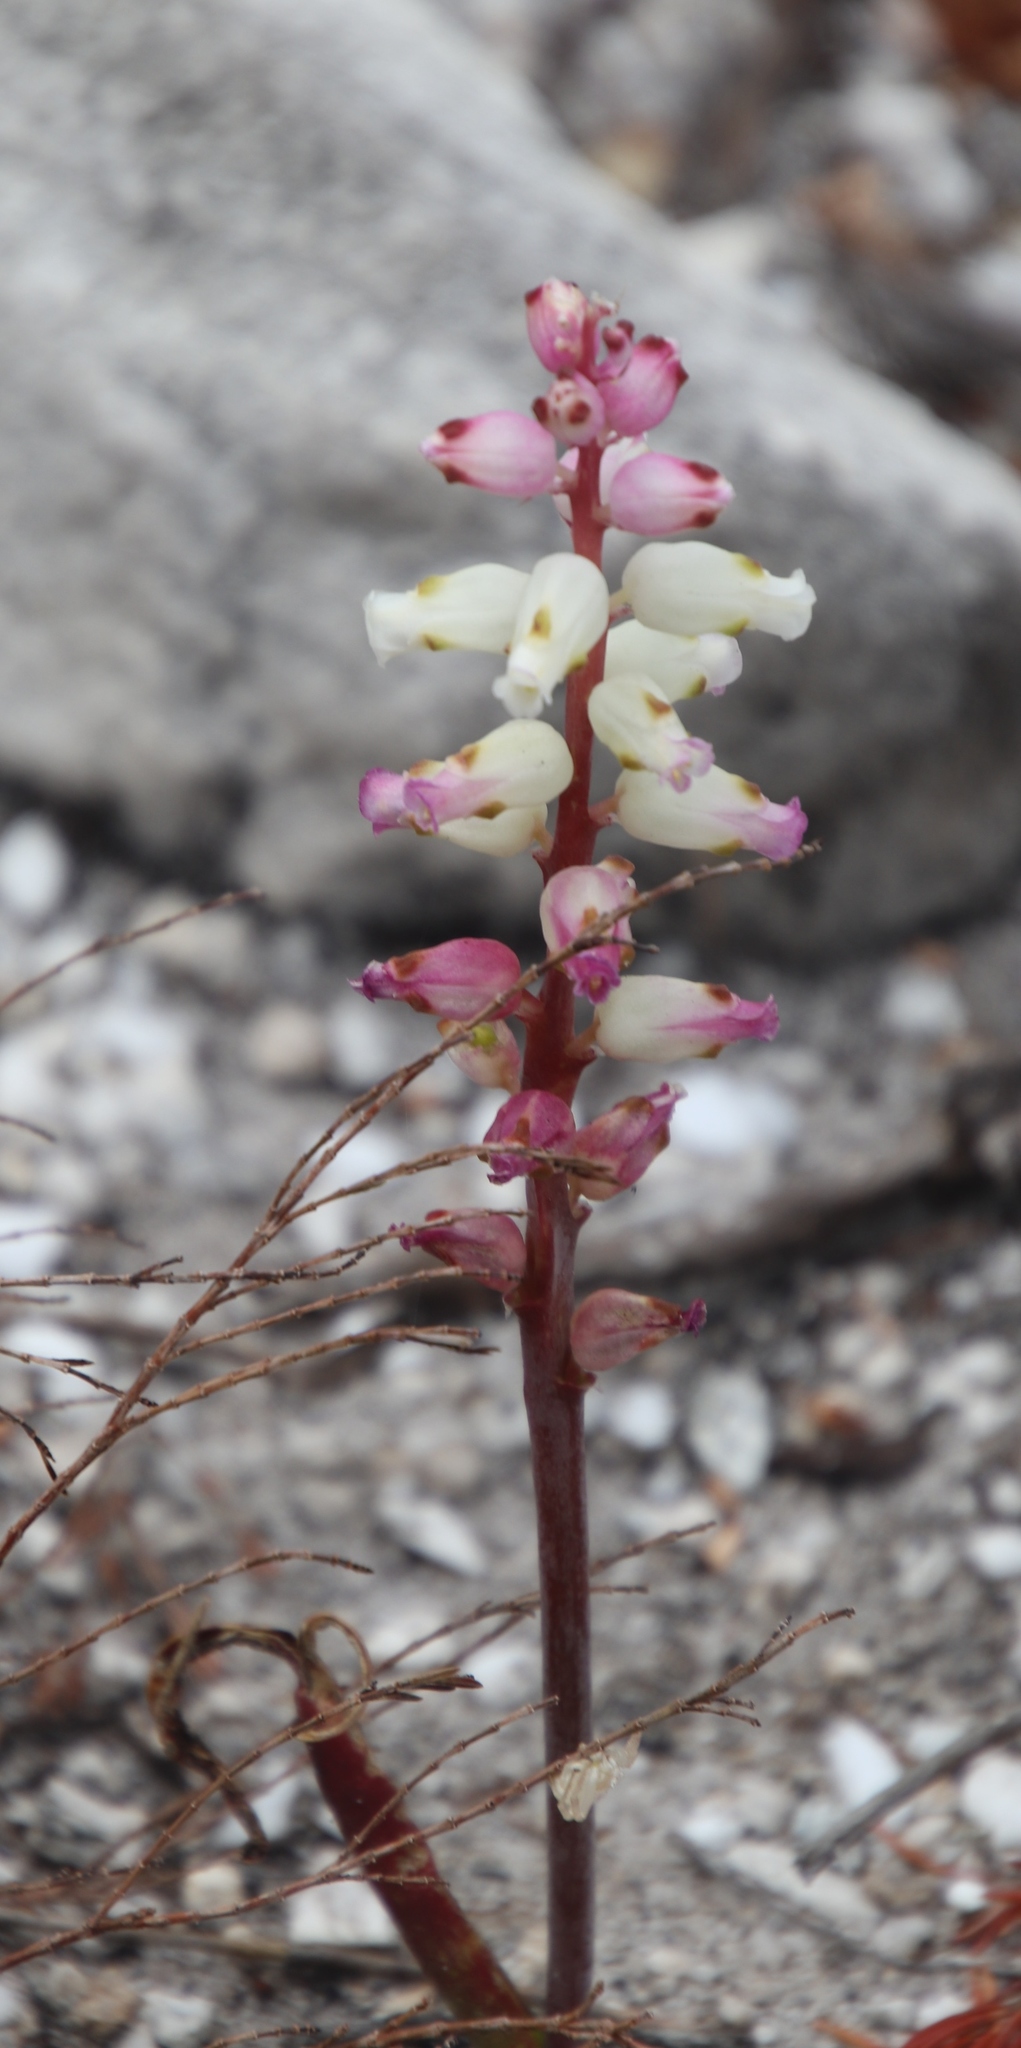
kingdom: Plantae
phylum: Tracheophyta
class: Liliopsida
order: Asparagales
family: Asparagaceae
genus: Lachenalia
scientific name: Lachenalia peersii
